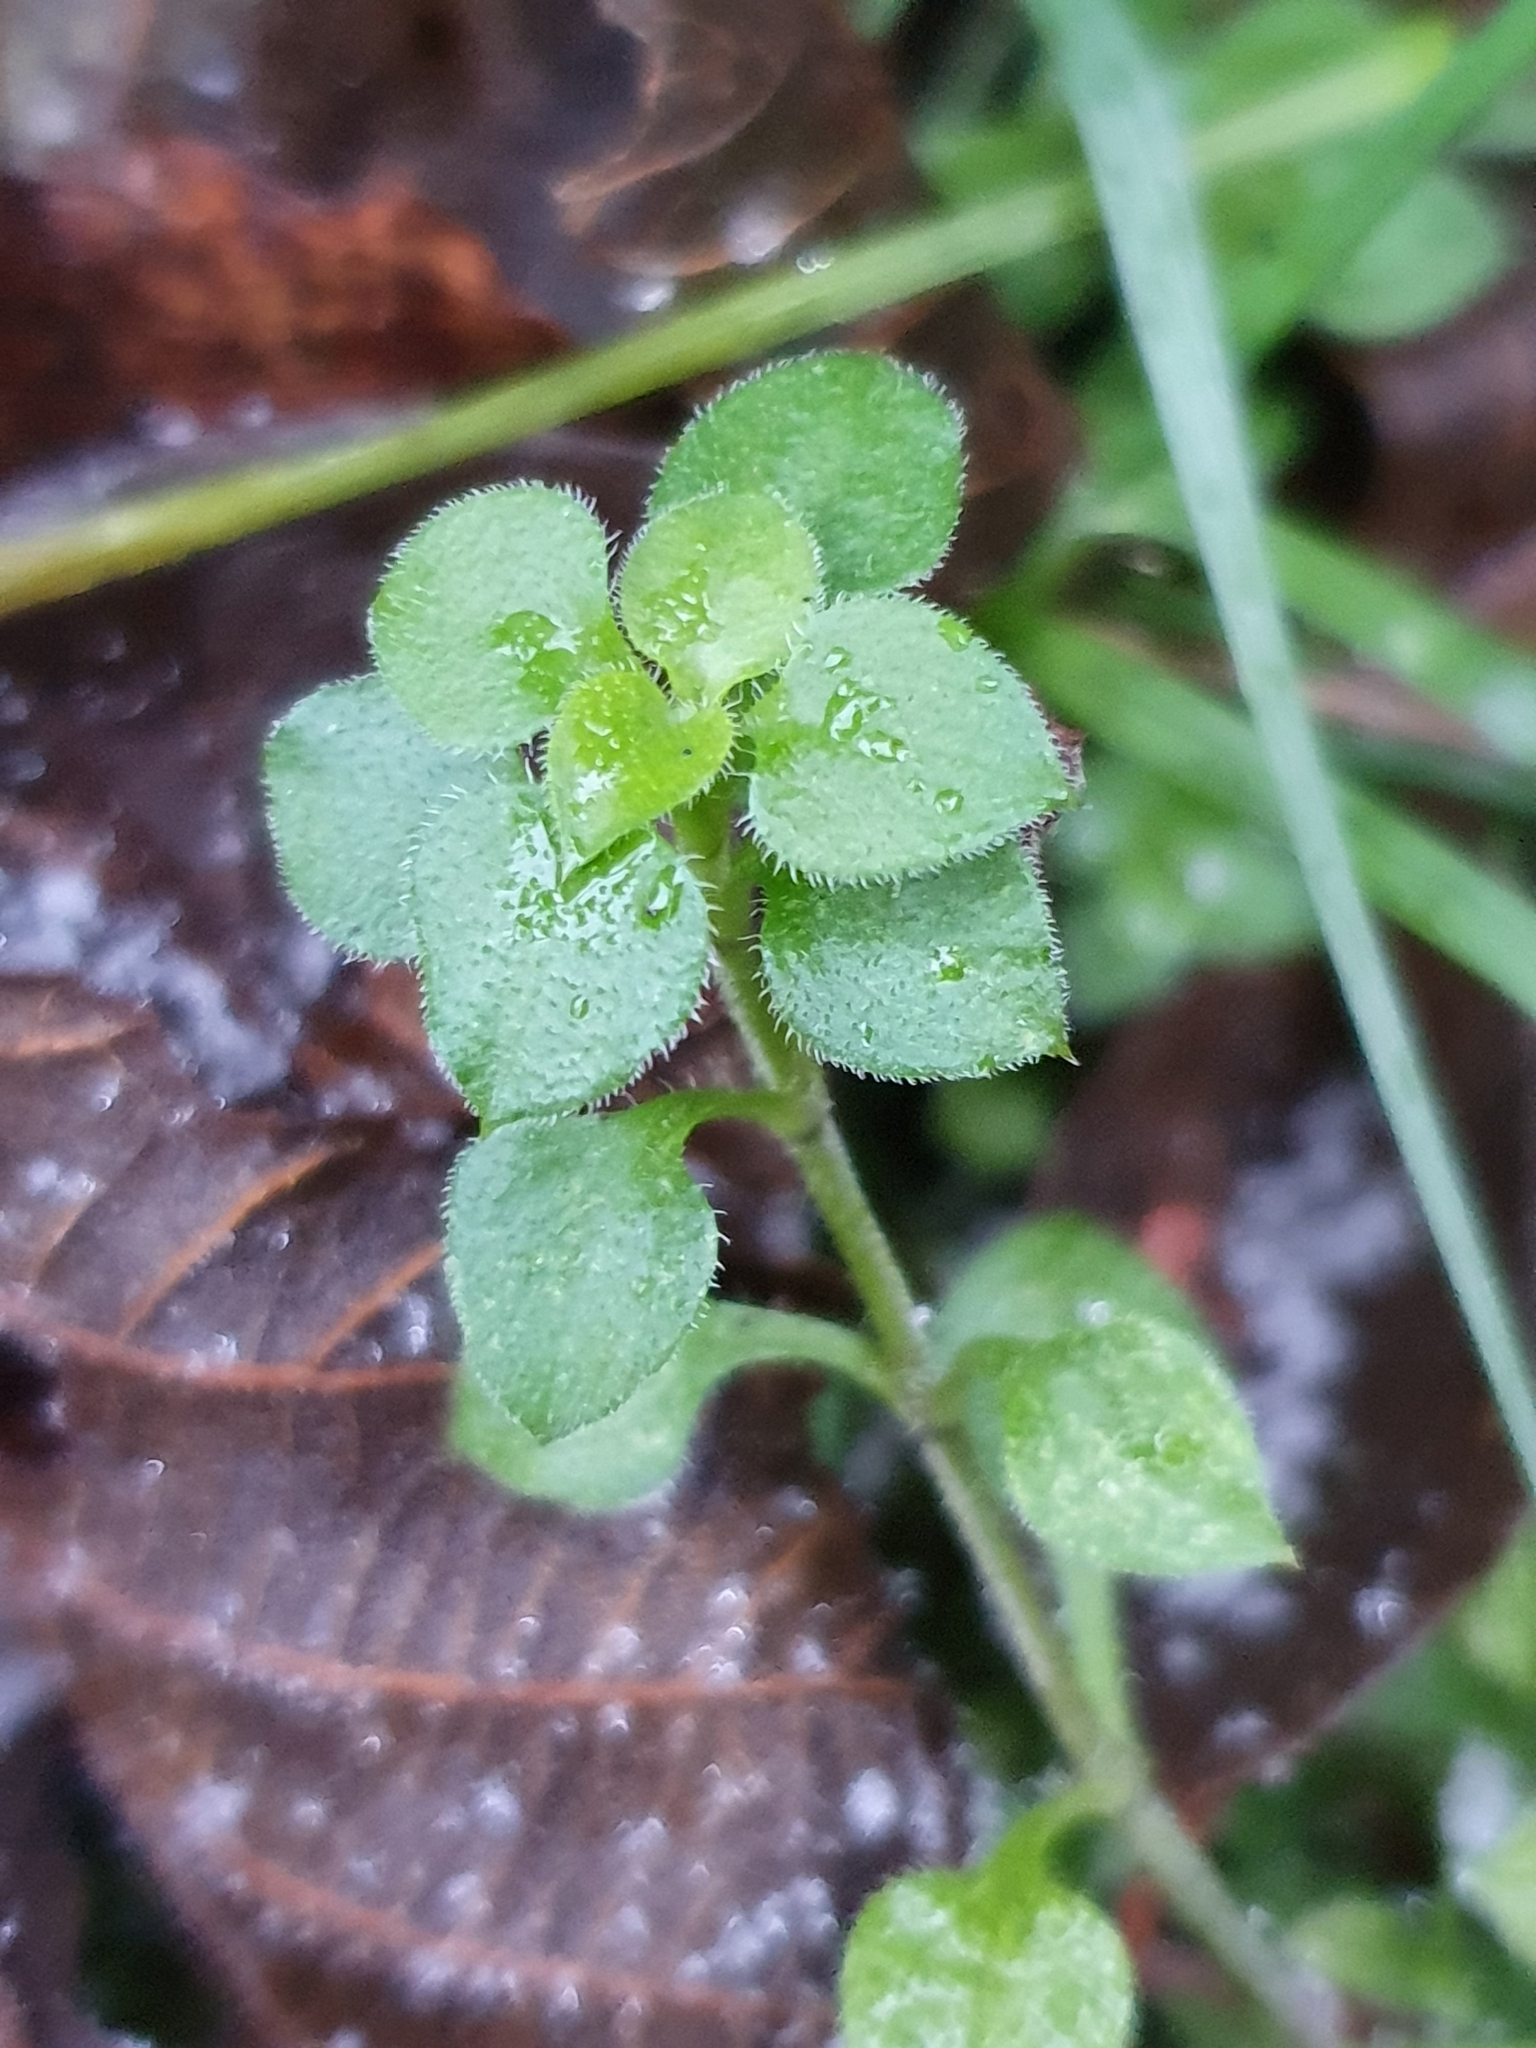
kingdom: Plantae
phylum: Tracheophyta
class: Magnoliopsida
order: Caryophyllales
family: Caryophyllaceae
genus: Moehringia
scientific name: Moehringia trinervia
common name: Three-nerved sandwort
